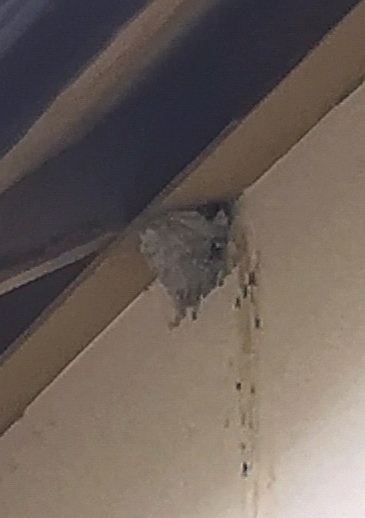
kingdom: Animalia
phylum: Chordata
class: Aves
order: Passeriformes
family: Hirundinidae
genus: Delichon
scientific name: Delichon urbicum
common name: Common house martin
